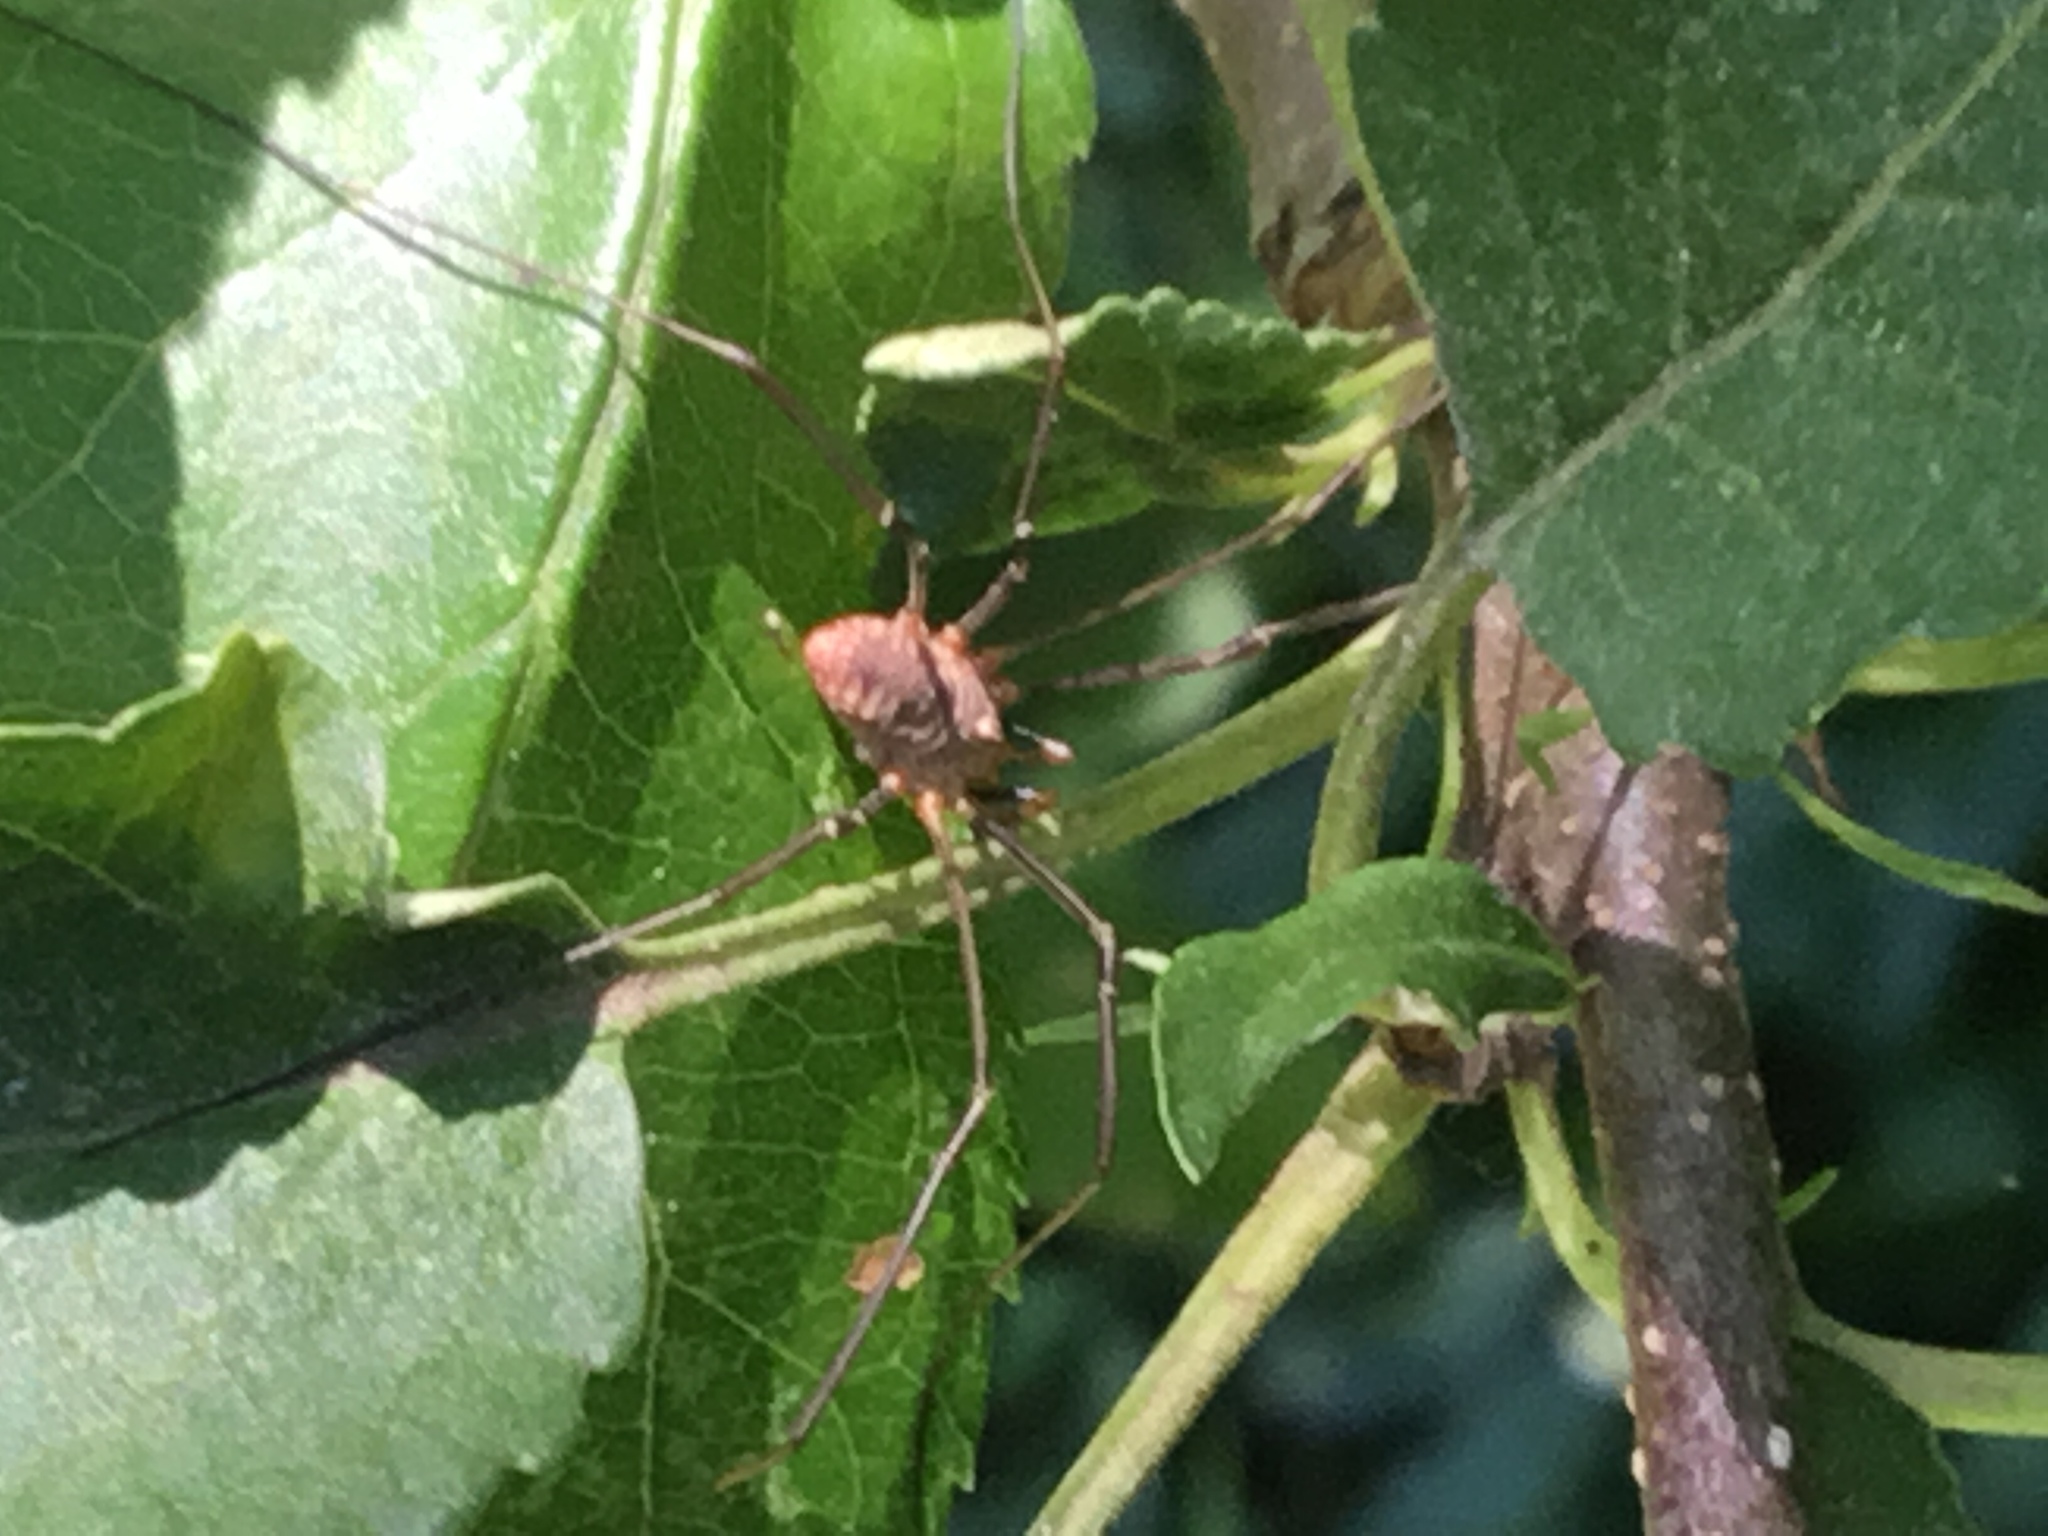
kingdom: Animalia
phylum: Arthropoda
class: Arachnida
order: Opiliones
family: Phalangiidae
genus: Phalangium
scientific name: Phalangium opilio
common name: Daddy longleg
